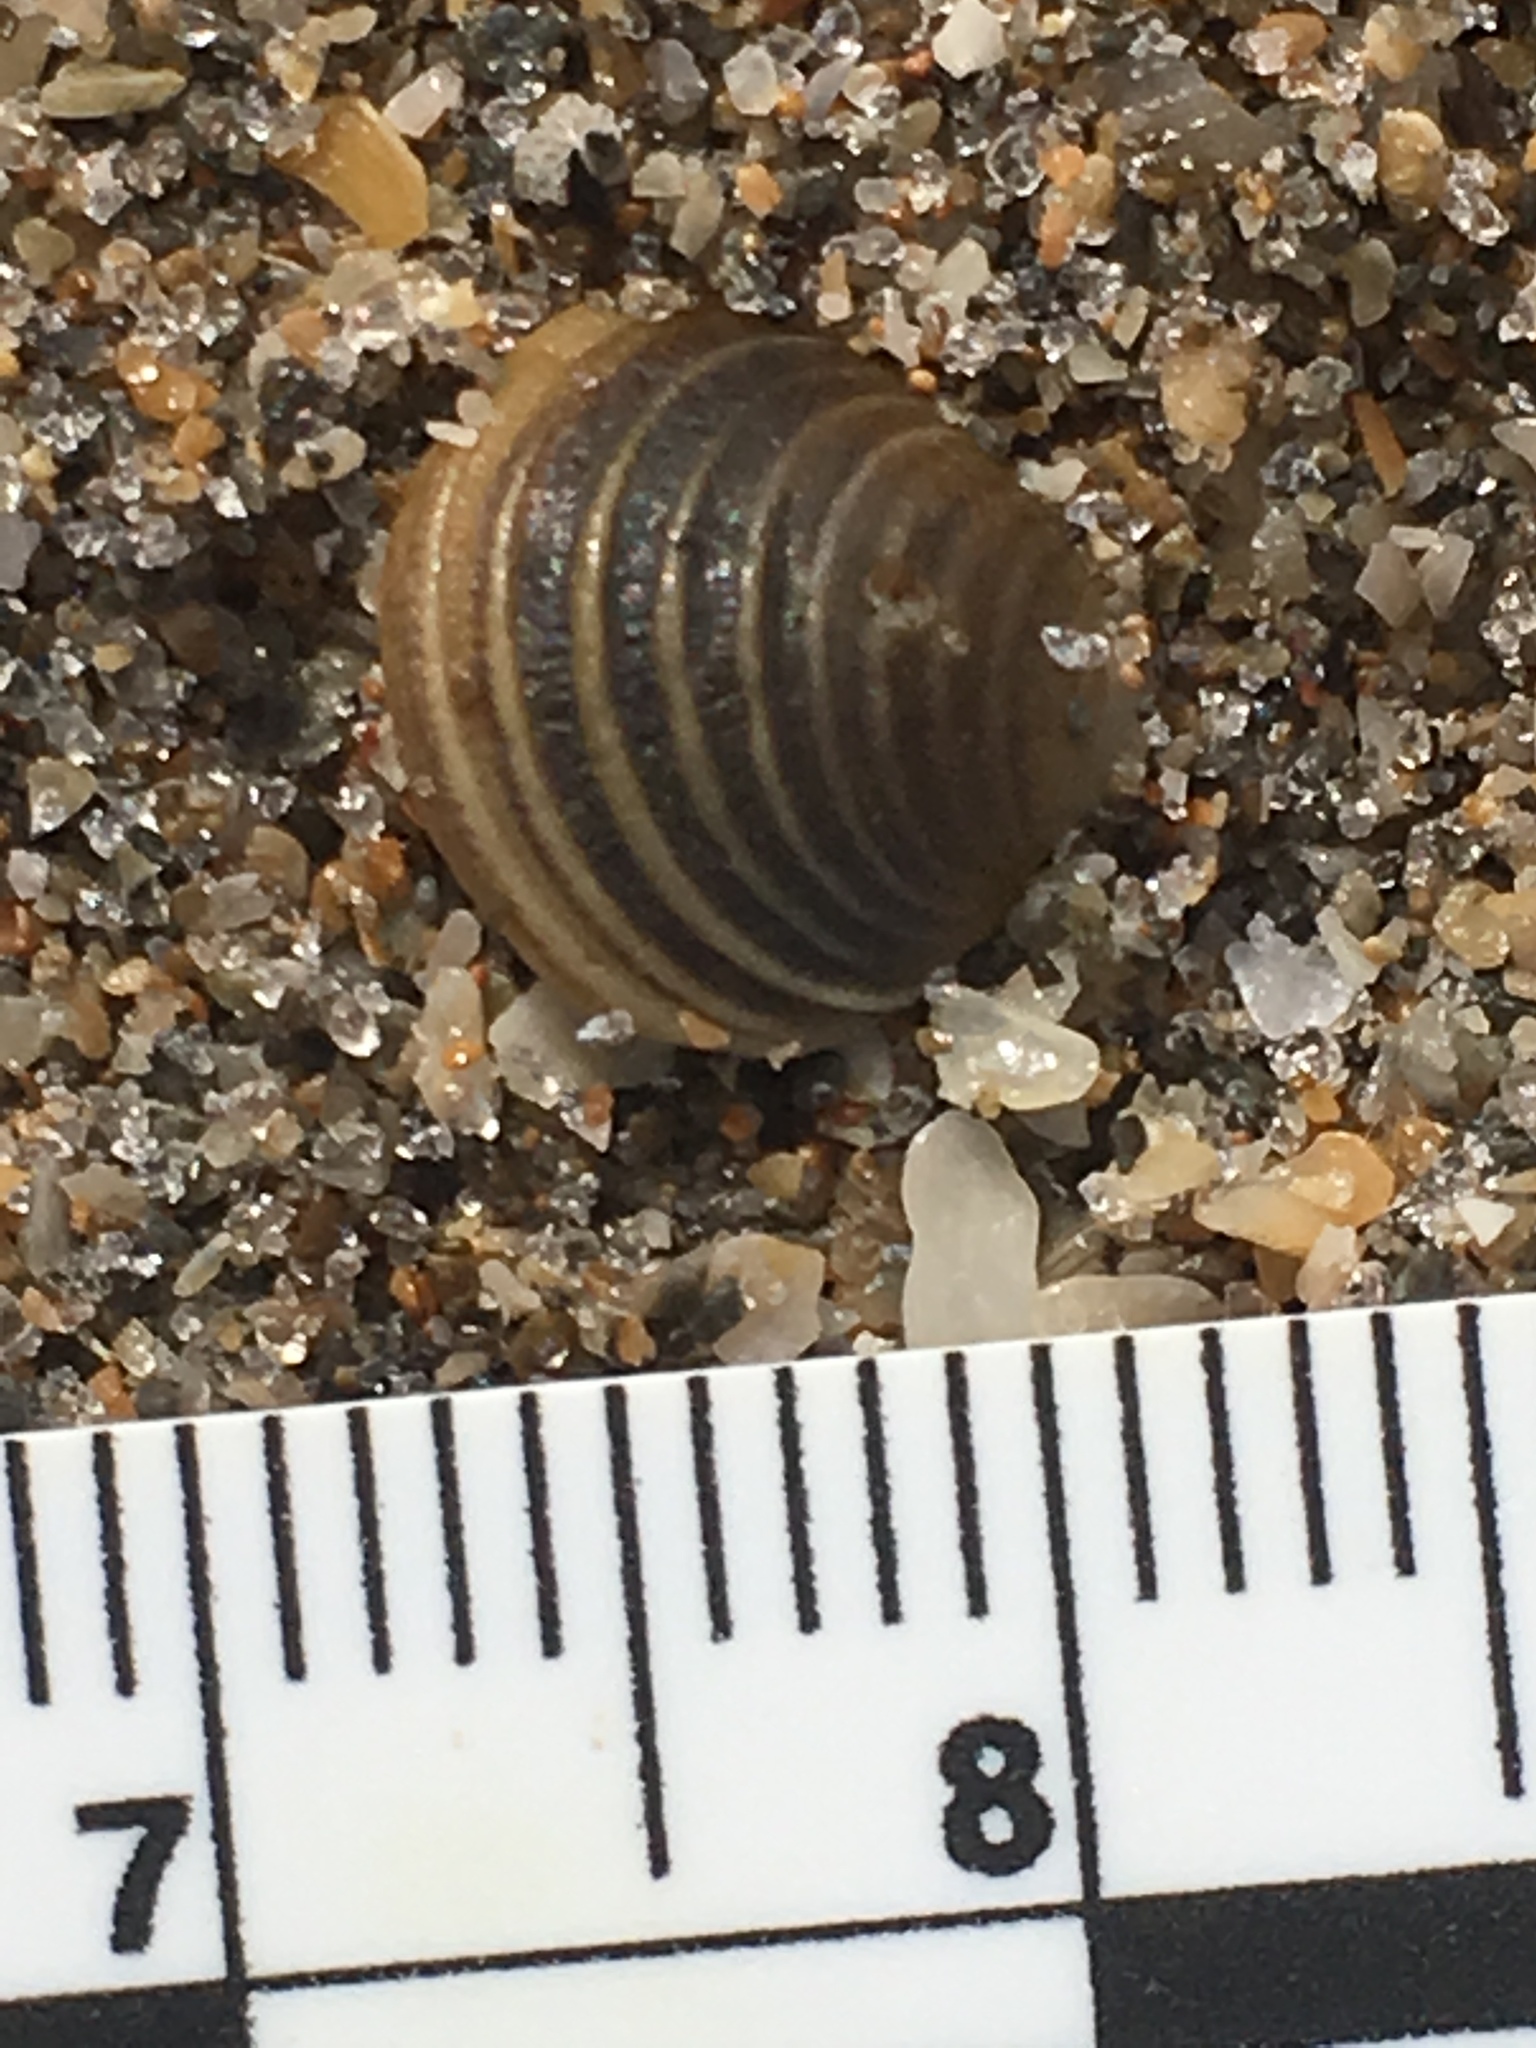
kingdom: Animalia
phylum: Mollusca
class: Bivalvia
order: Venerida
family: Veneridae
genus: Chionopsis
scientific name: Chionopsis intapurpurea
